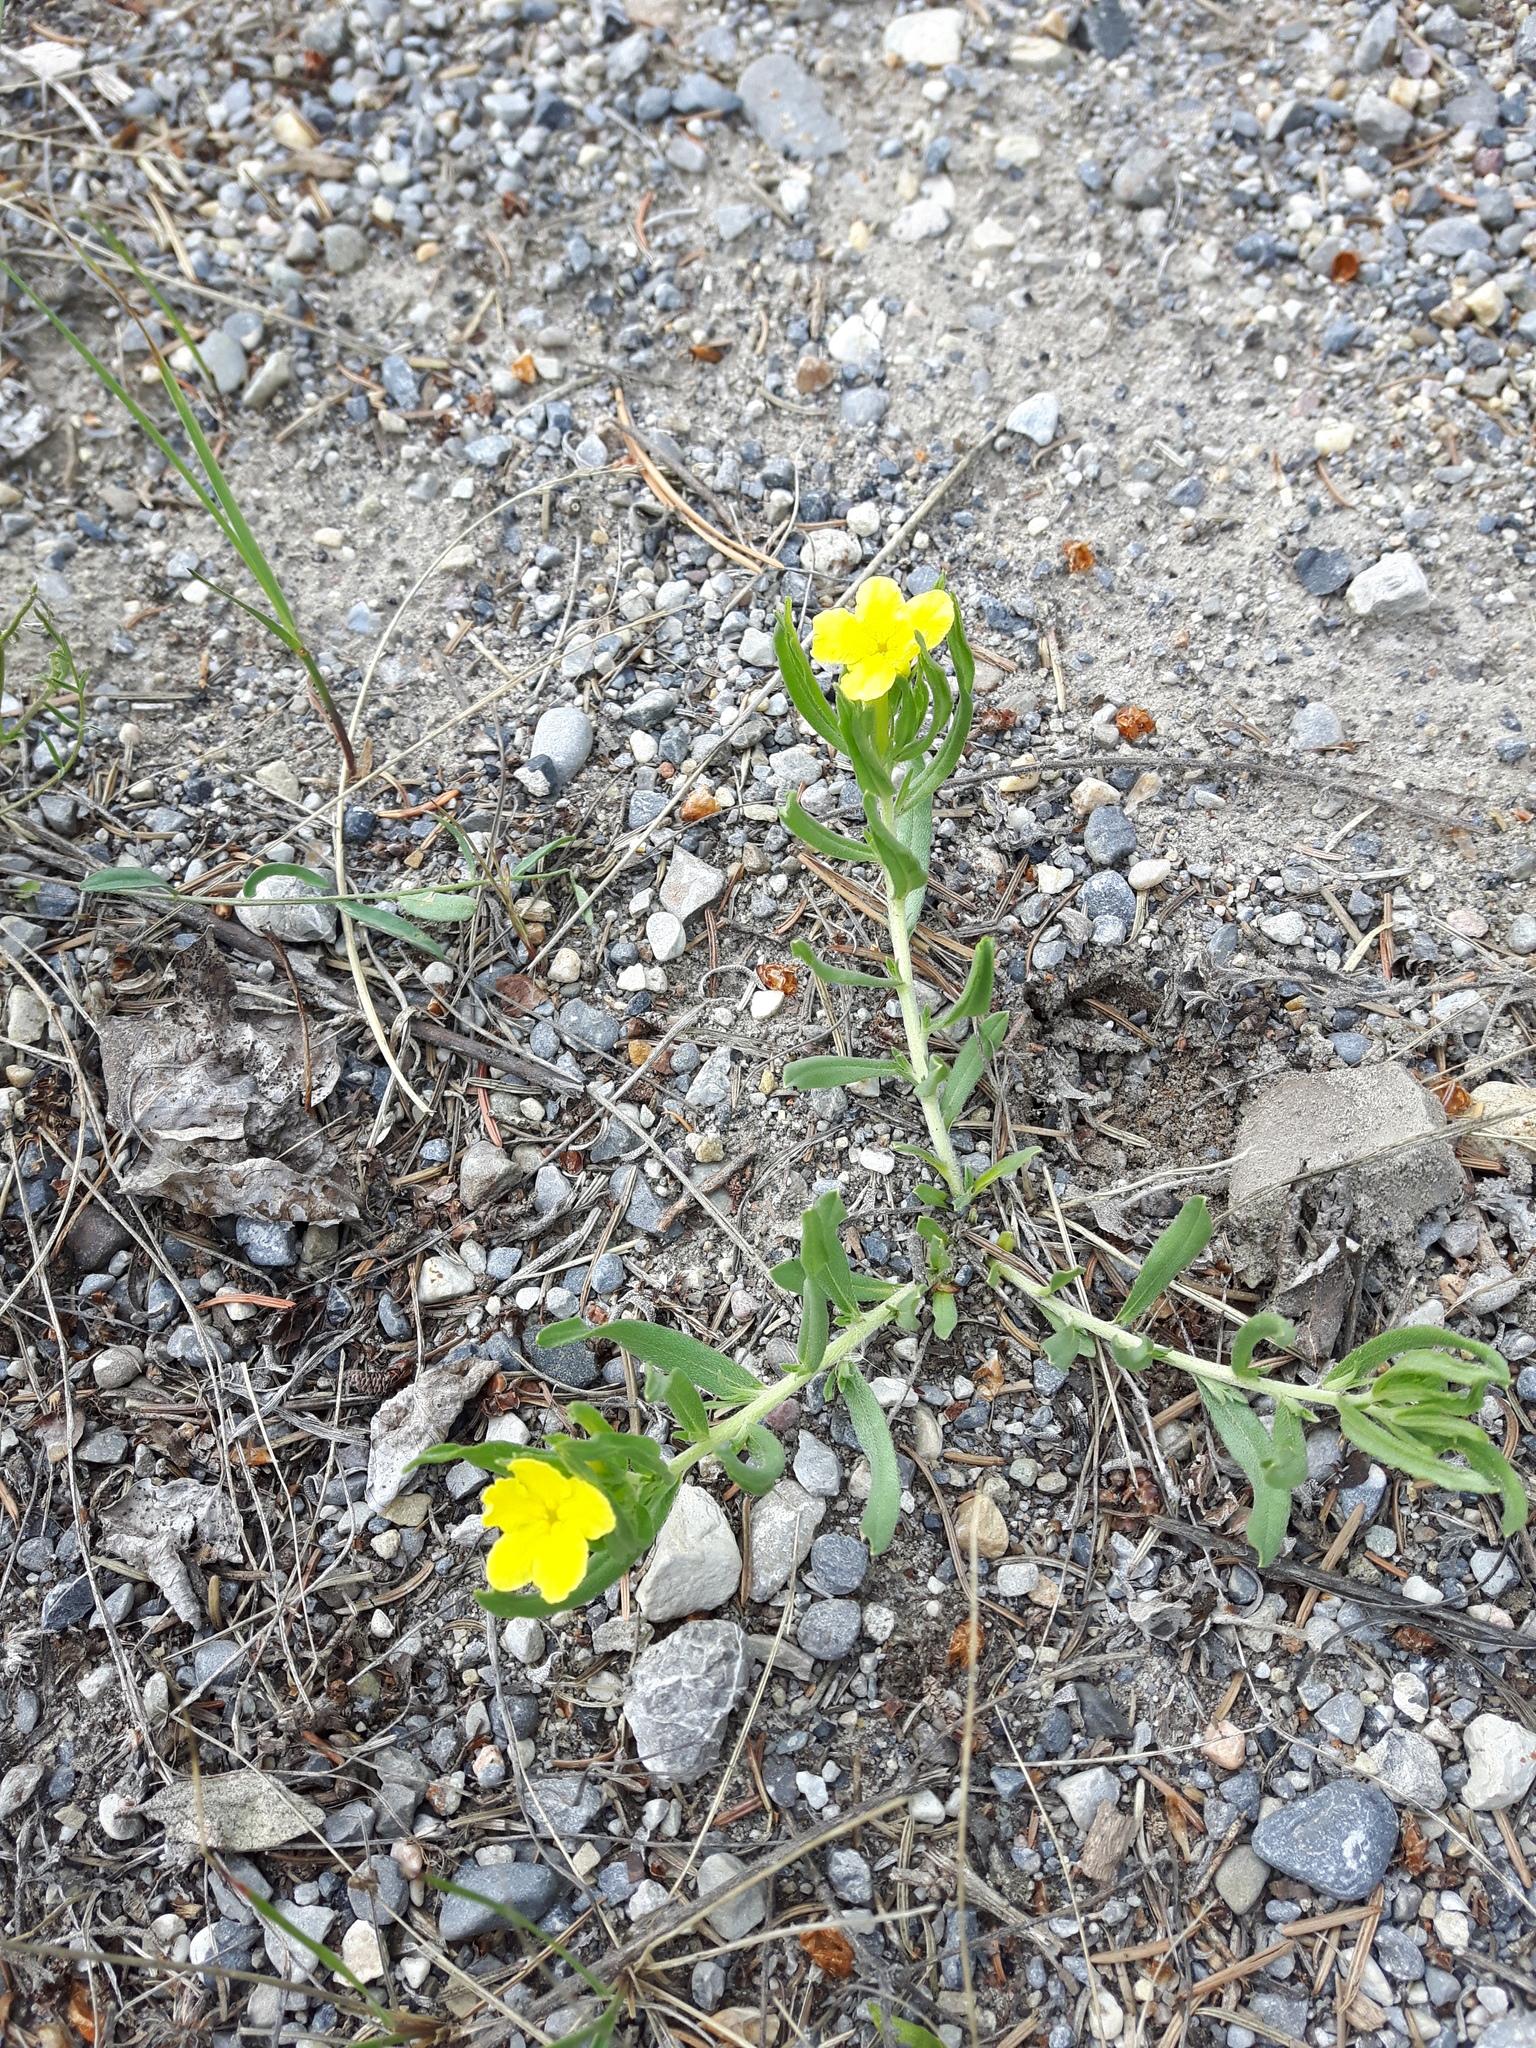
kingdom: Plantae
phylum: Tracheophyta
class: Magnoliopsida
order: Boraginales
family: Boraginaceae
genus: Lithospermum
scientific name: Lithospermum incisum
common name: Fringed gromwell
